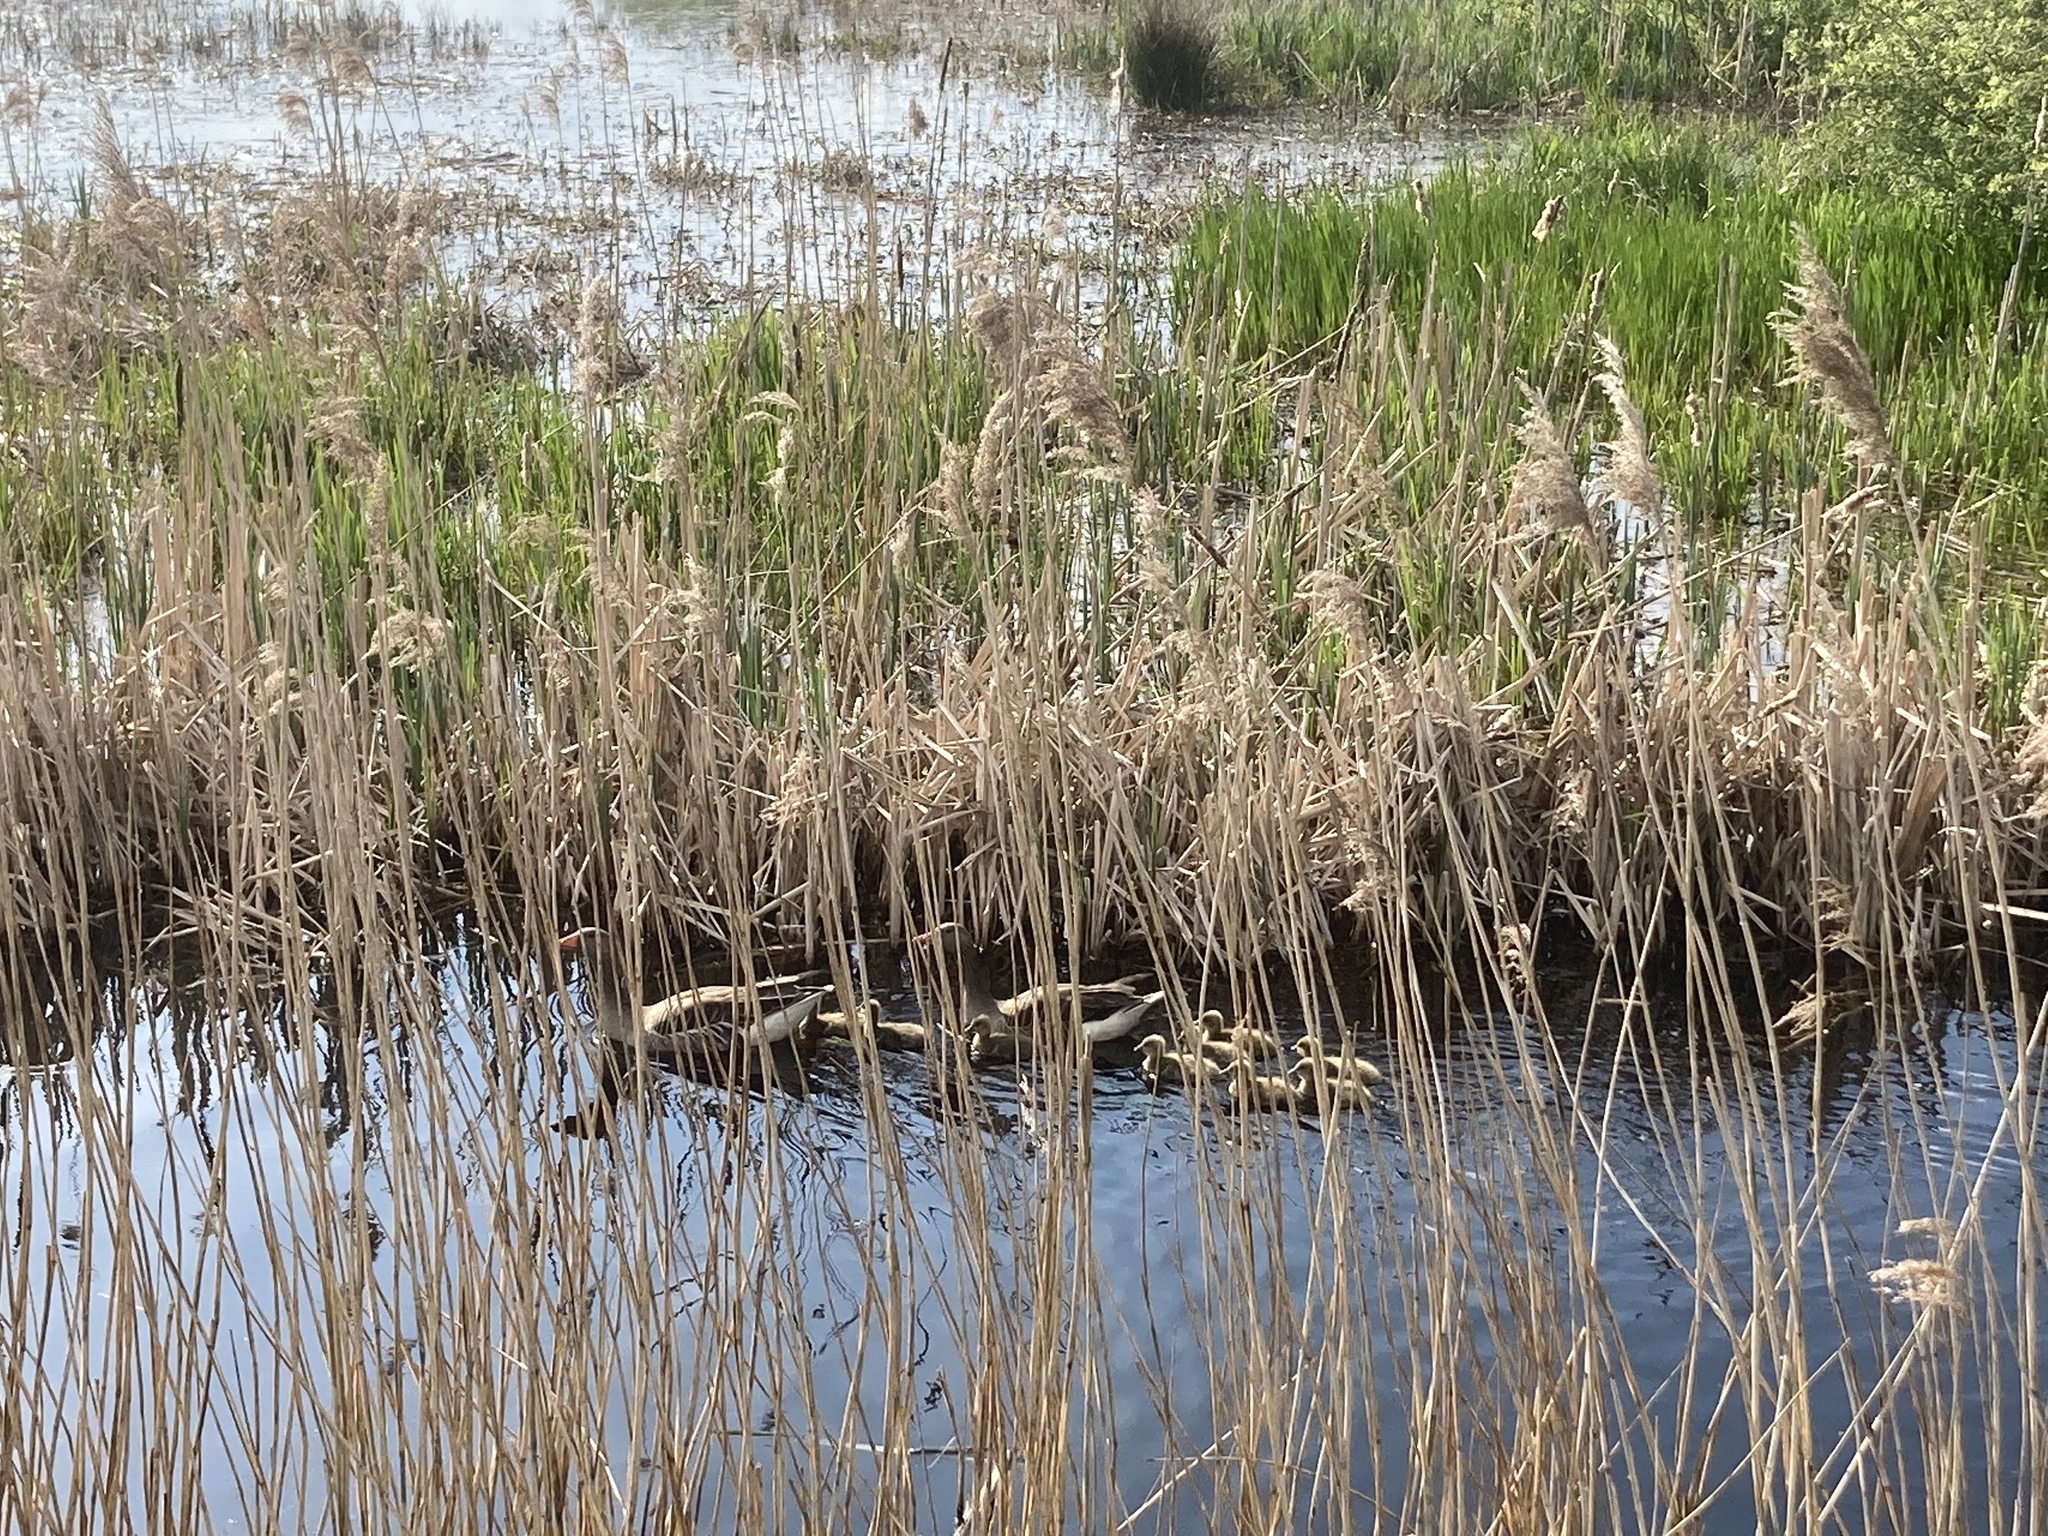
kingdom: Animalia
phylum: Chordata
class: Aves
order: Anseriformes
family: Anatidae
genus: Anser
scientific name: Anser anser
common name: Greylag goose
